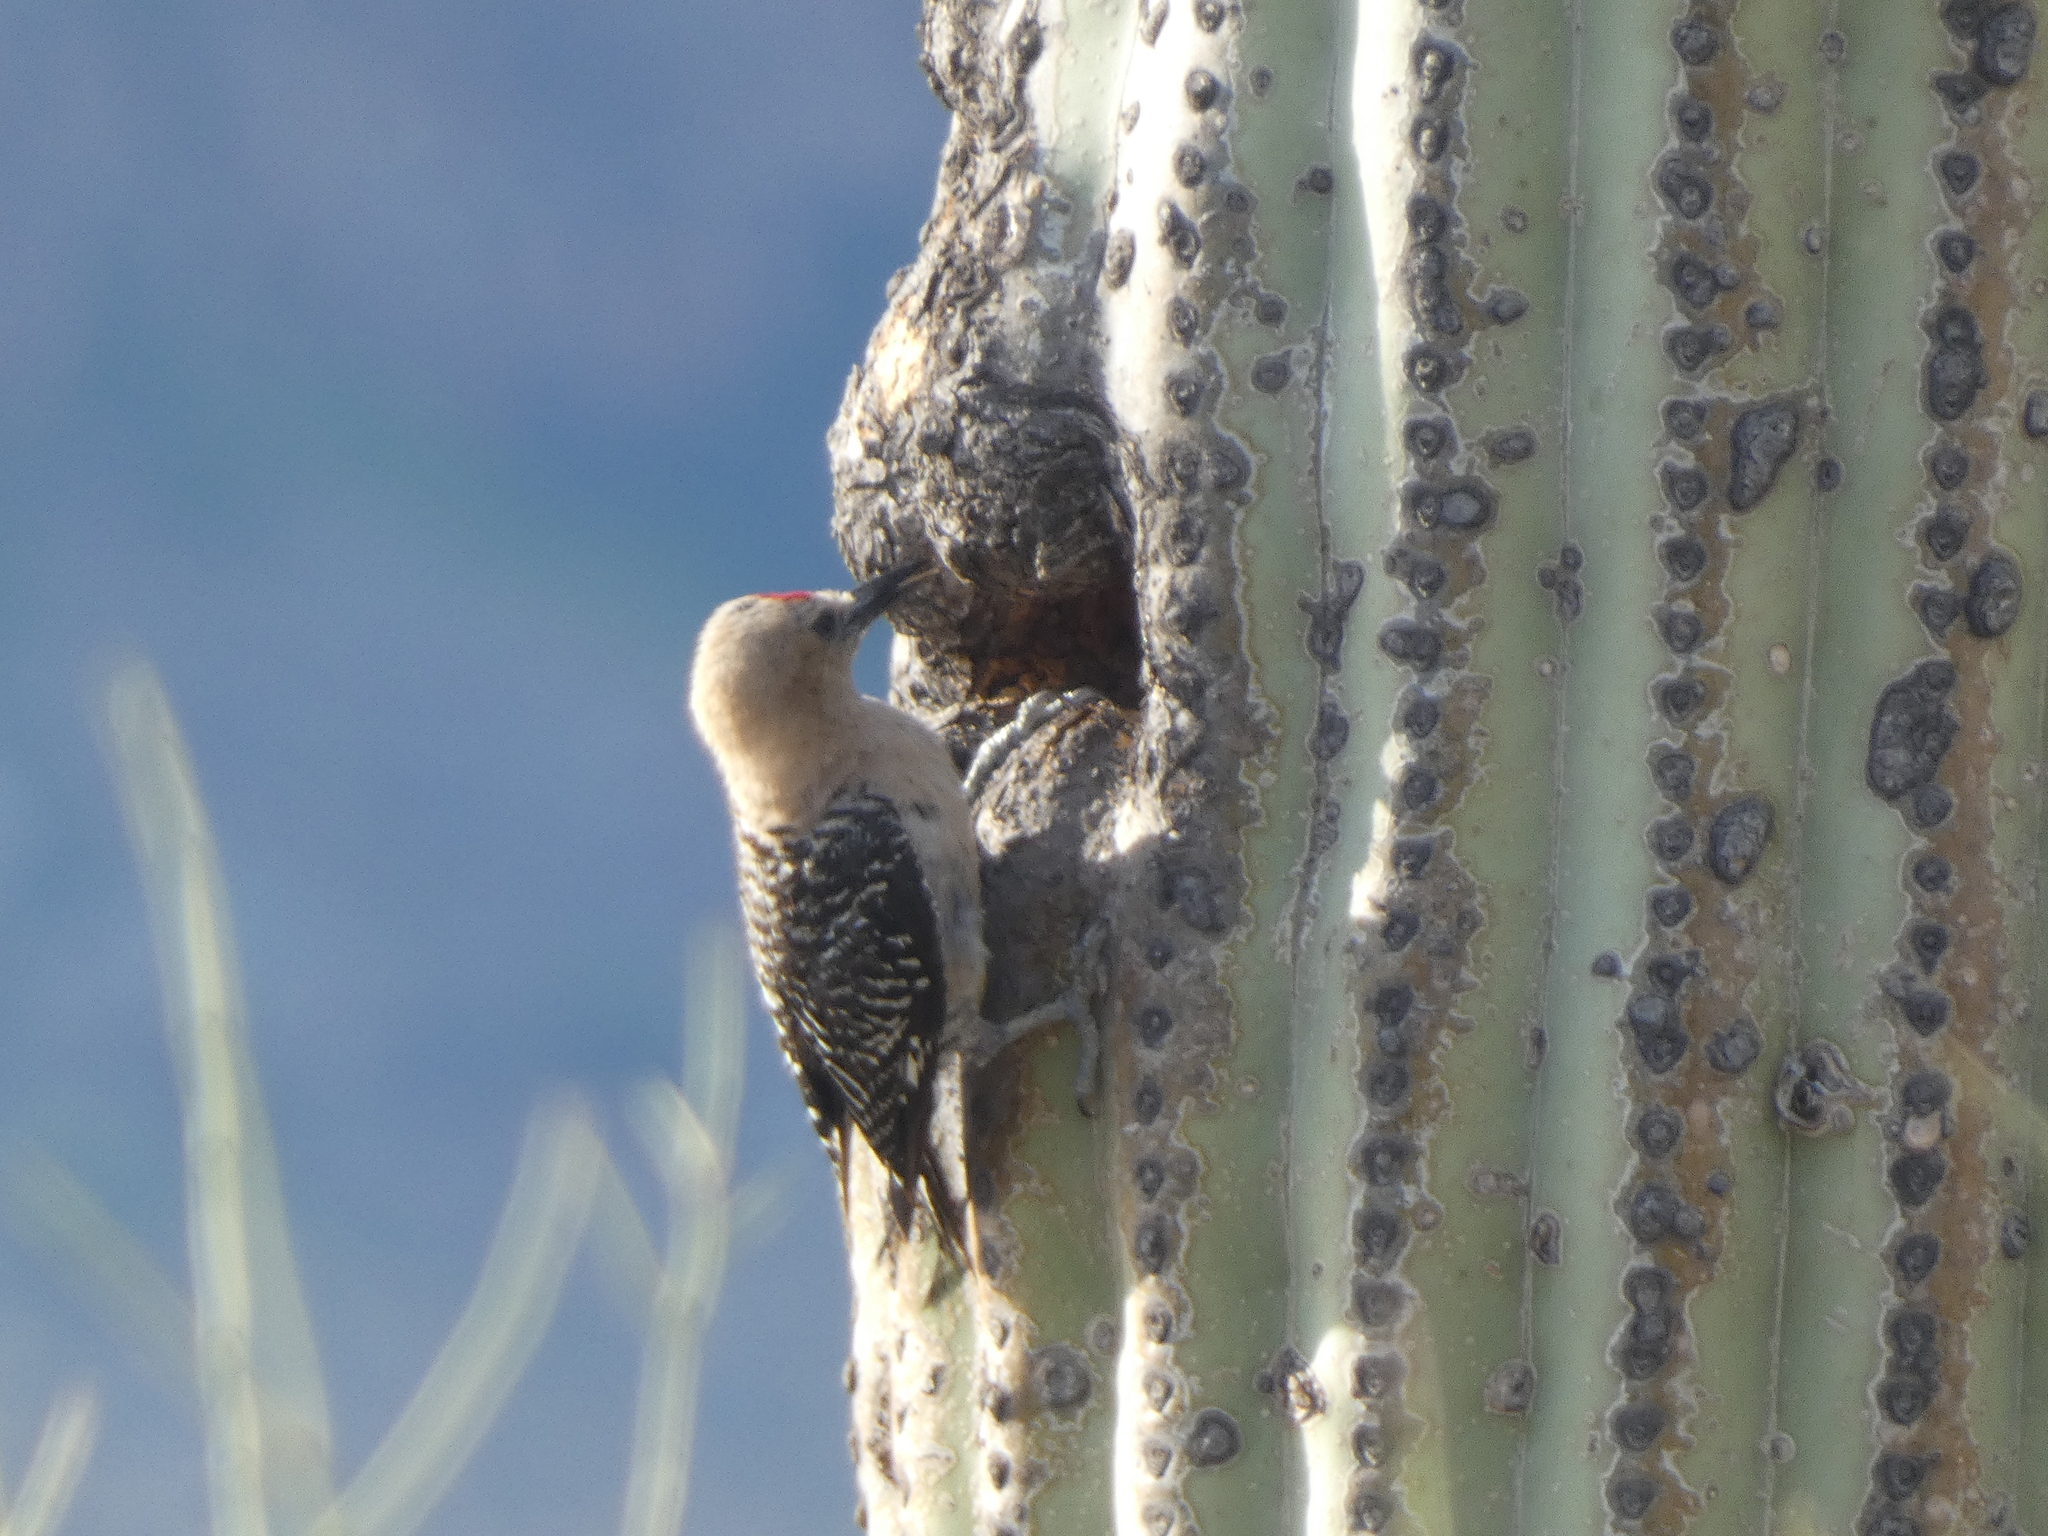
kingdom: Animalia
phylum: Chordata
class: Aves
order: Piciformes
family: Picidae
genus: Melanerpes
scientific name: Melanerpes uropygialis
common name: Gila woodpecker
